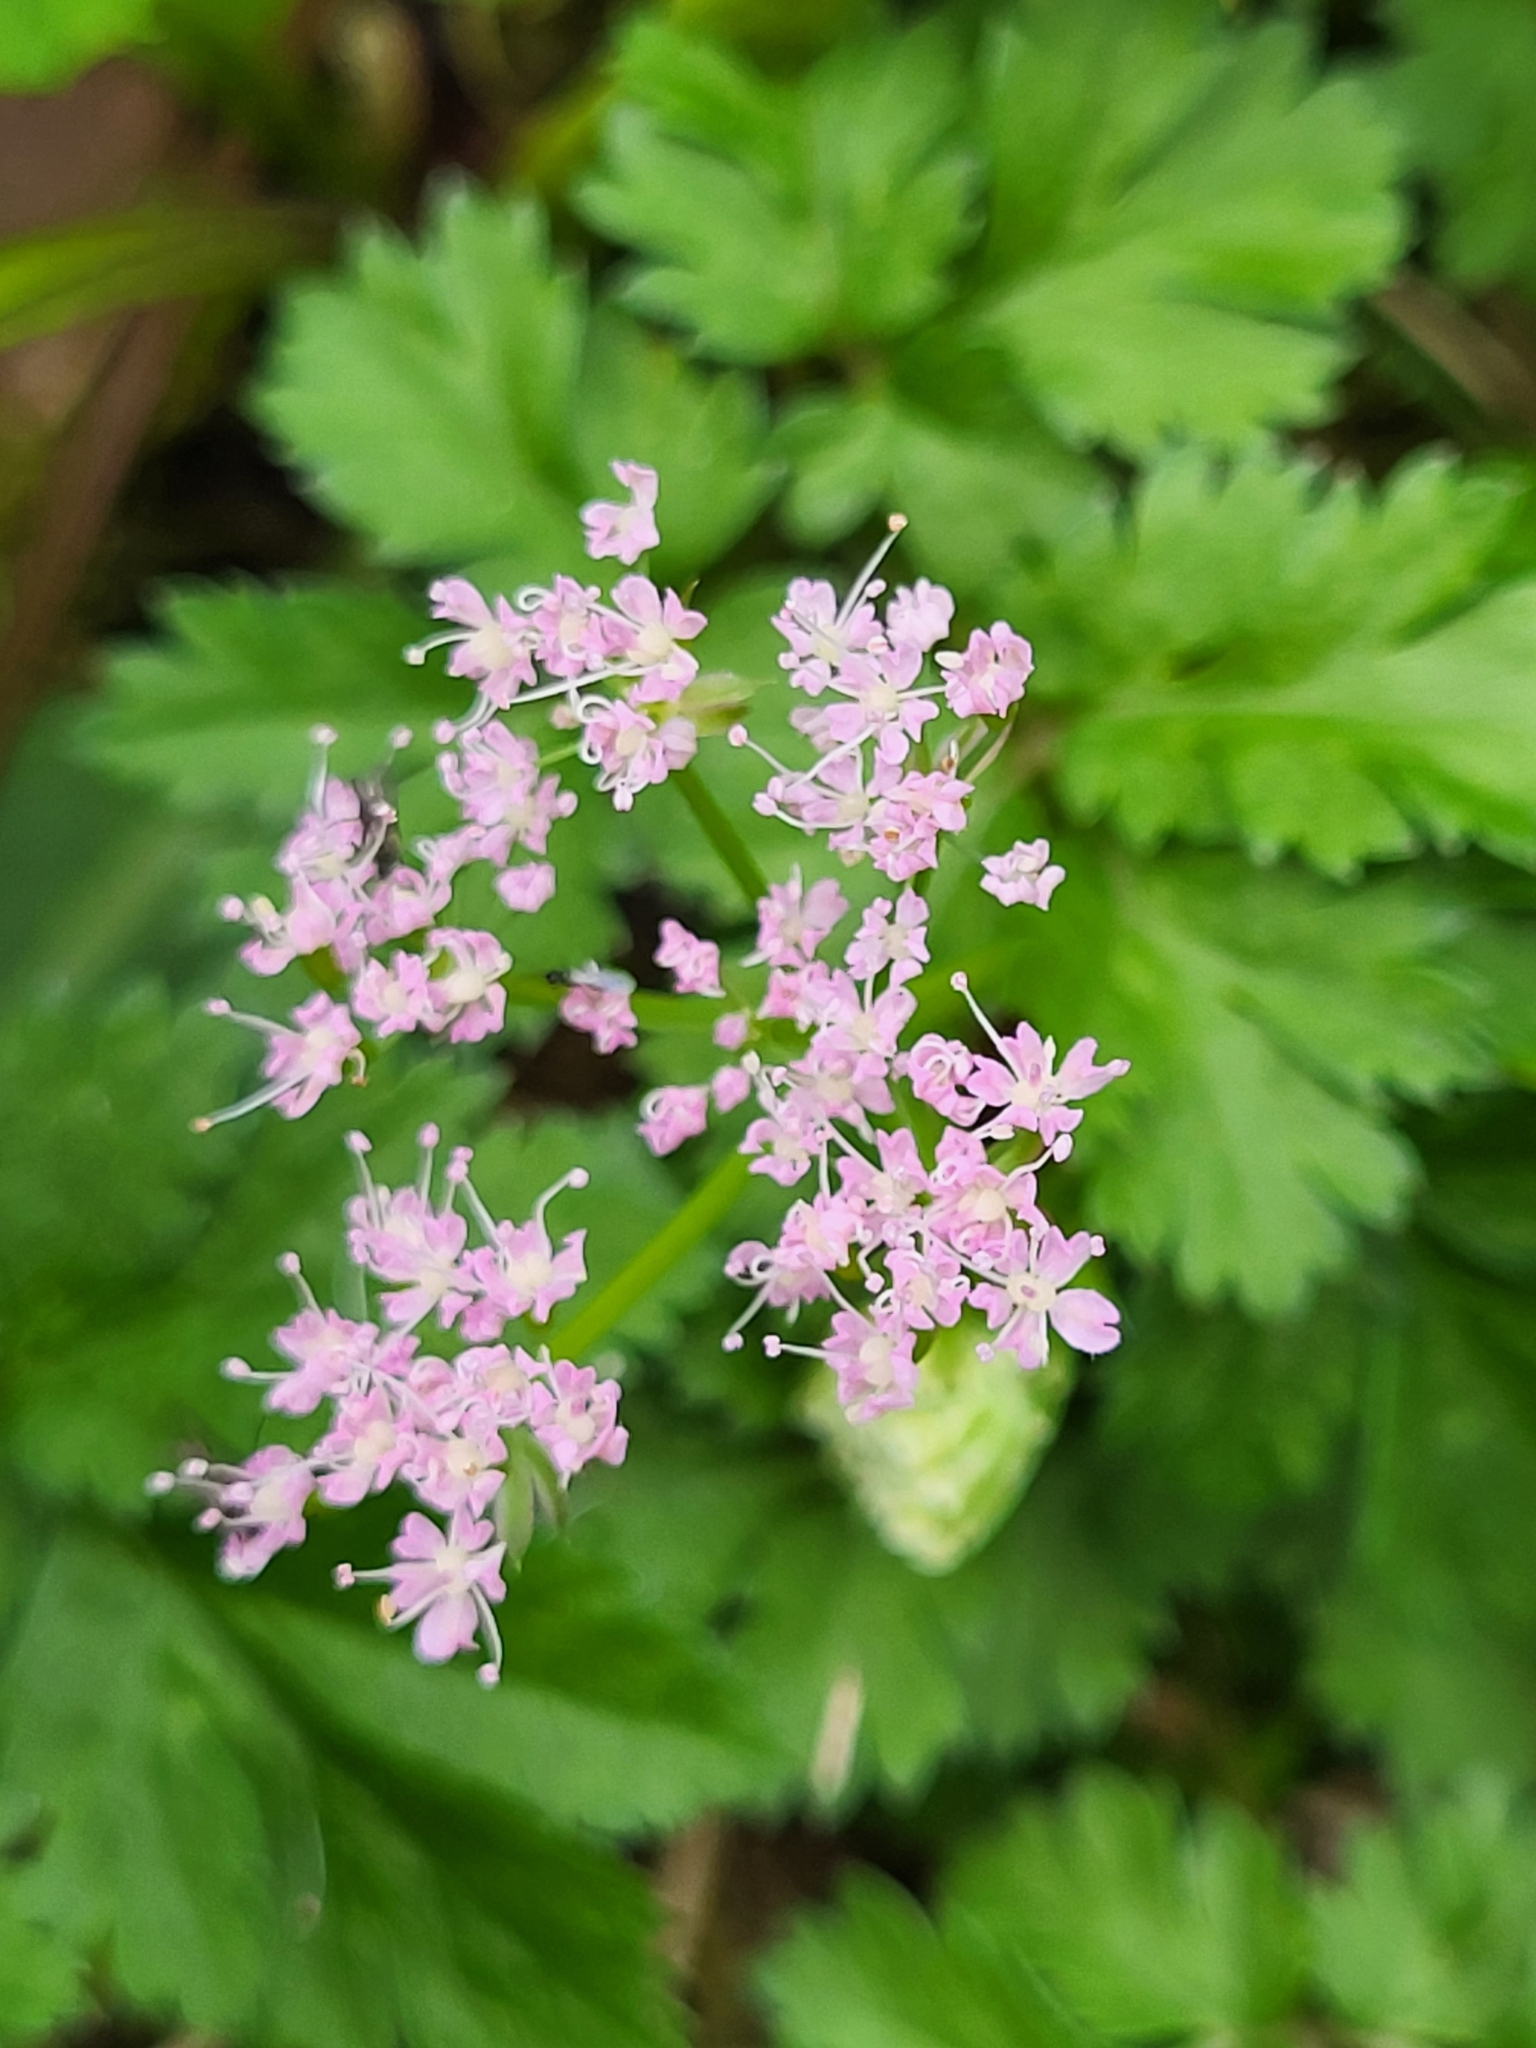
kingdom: Plantae
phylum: Tracheophyta
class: Magnoliopsida
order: Apiales
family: Apiaceae
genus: Chaerophyllum
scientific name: Chaerophyllum hirsutum
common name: Hairy chervil
